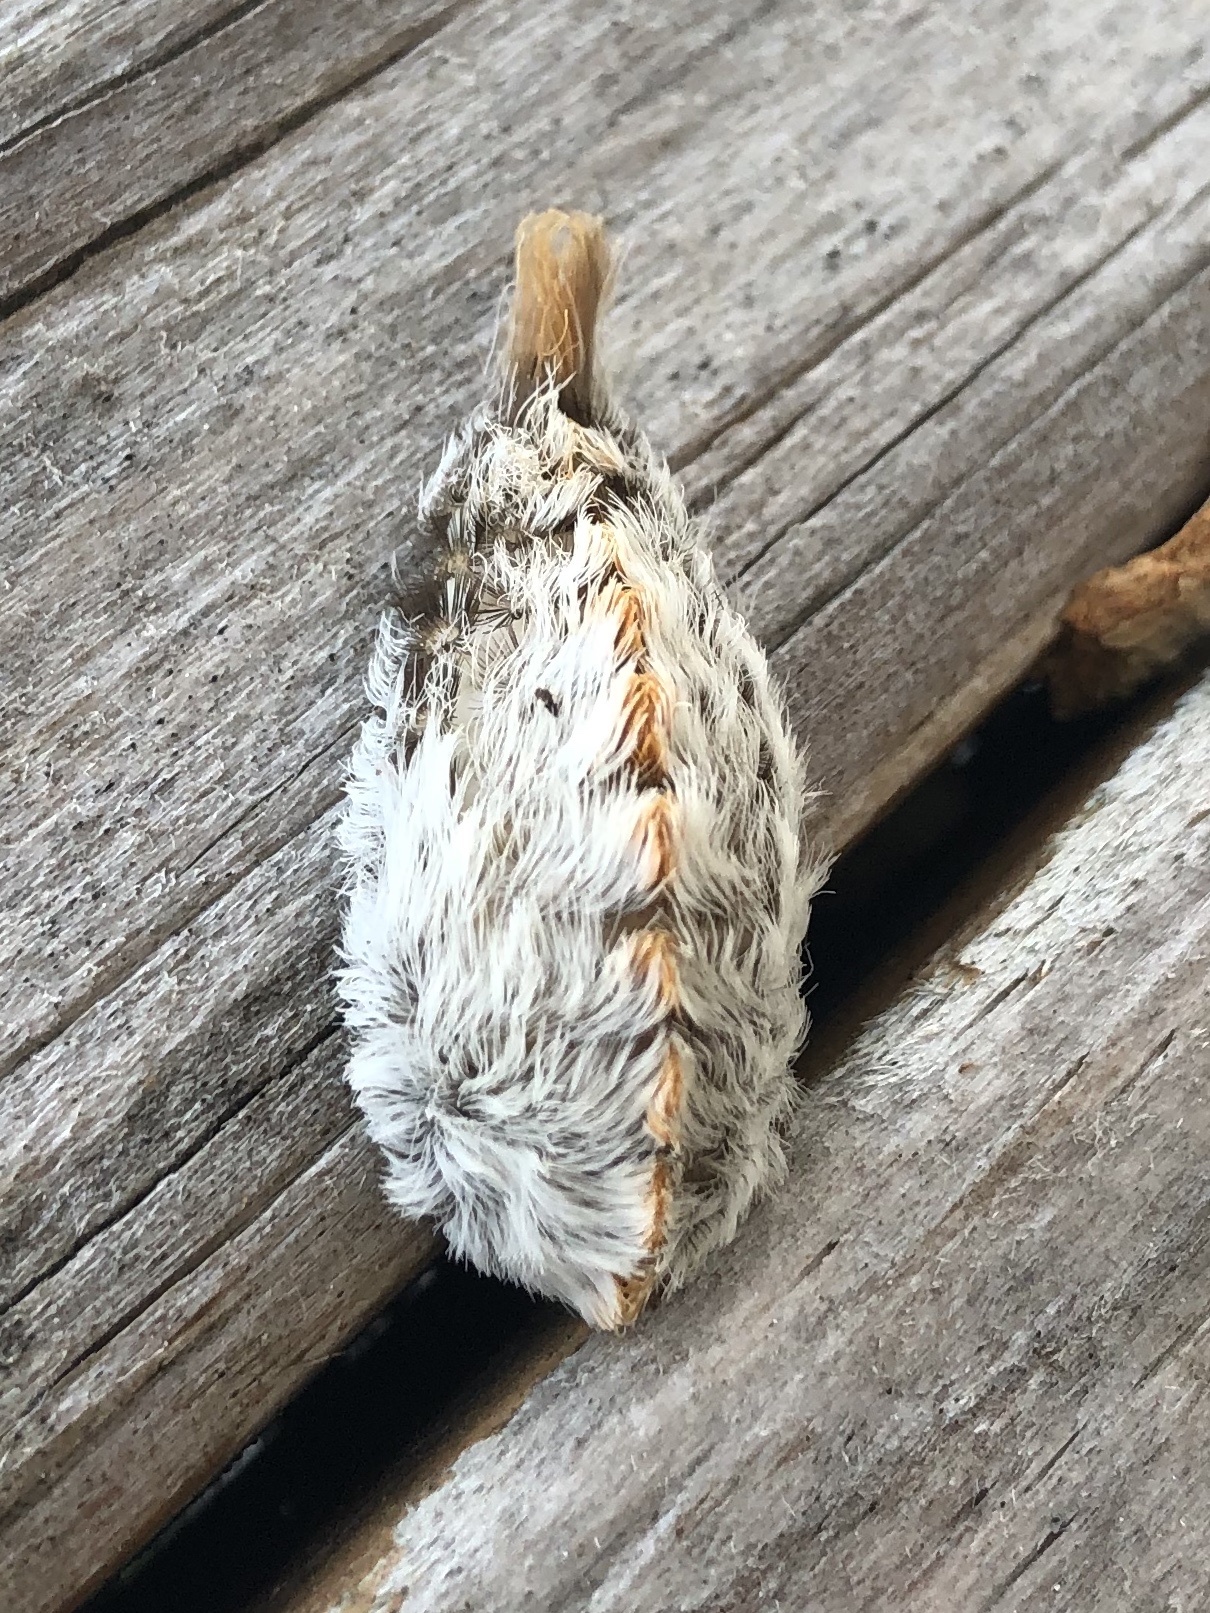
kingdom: Animalia
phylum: Arthropoda
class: Insecta
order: Lepidoptera
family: Megalopygidae
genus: Megalopyge
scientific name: Megalopyge opercularis
